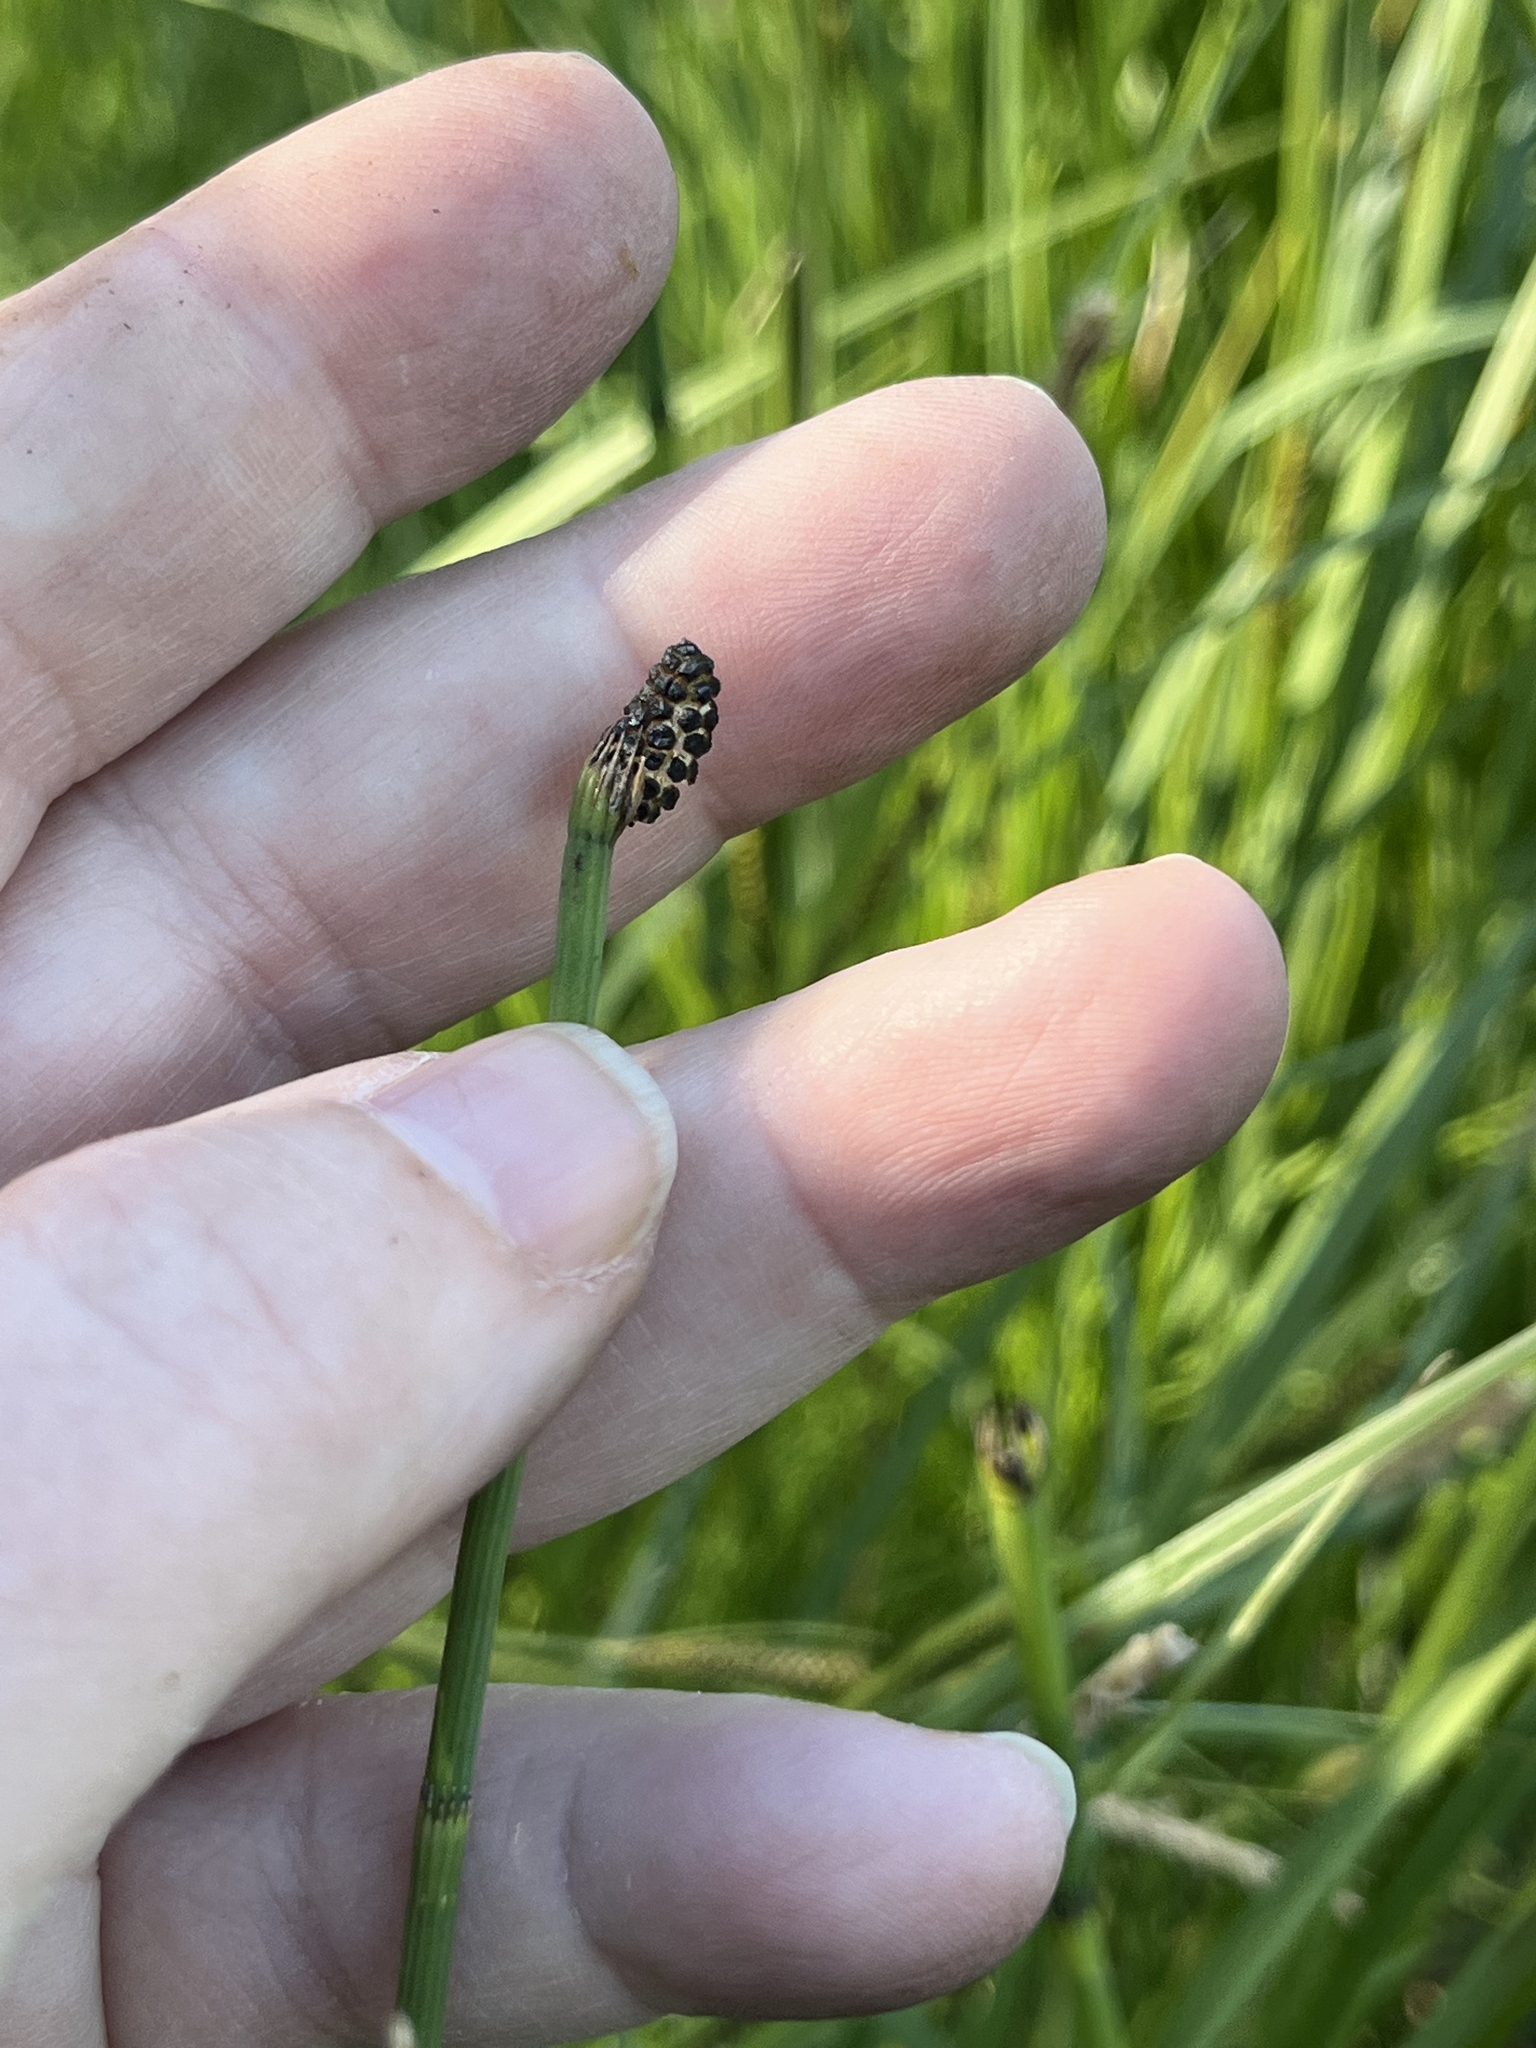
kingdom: Plantae
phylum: Tracheophyta
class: Polypodiopsida
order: Equisetales
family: Equisetaceae
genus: Equisetum
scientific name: Equisetum fluviatile
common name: Water horsetail
